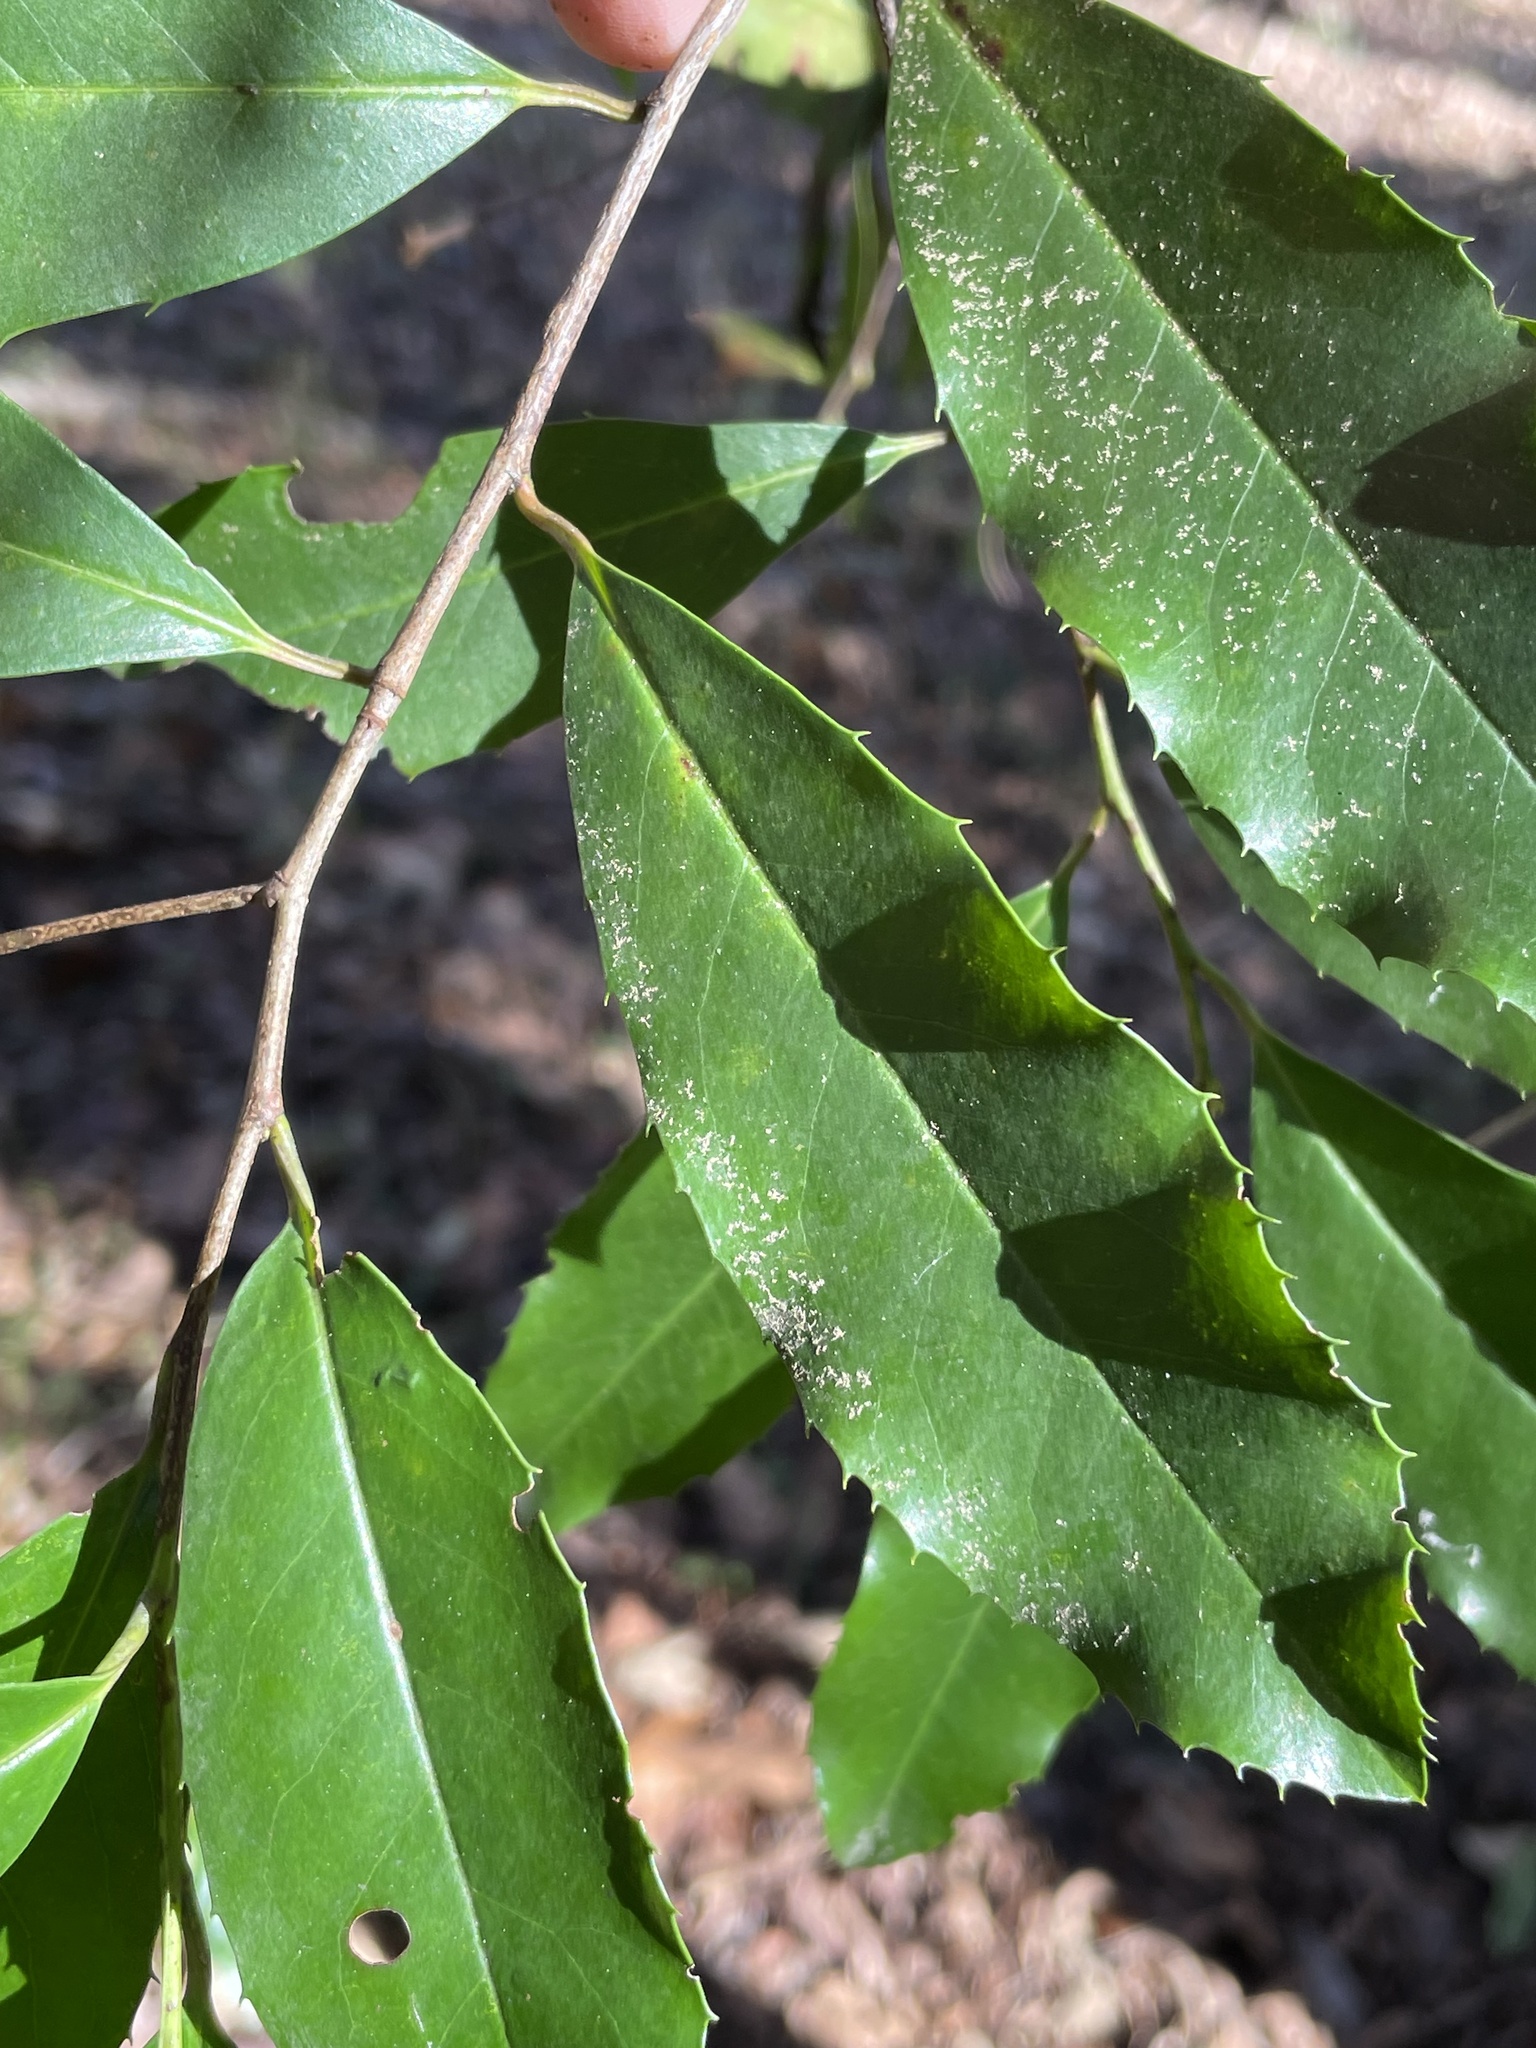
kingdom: Plantae
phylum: Tracheophyta
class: Magnoliopsida
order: Rosales
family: Rosaceae
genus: Prunus
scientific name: Prunus caroliniana
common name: Carolina laurel cherry
